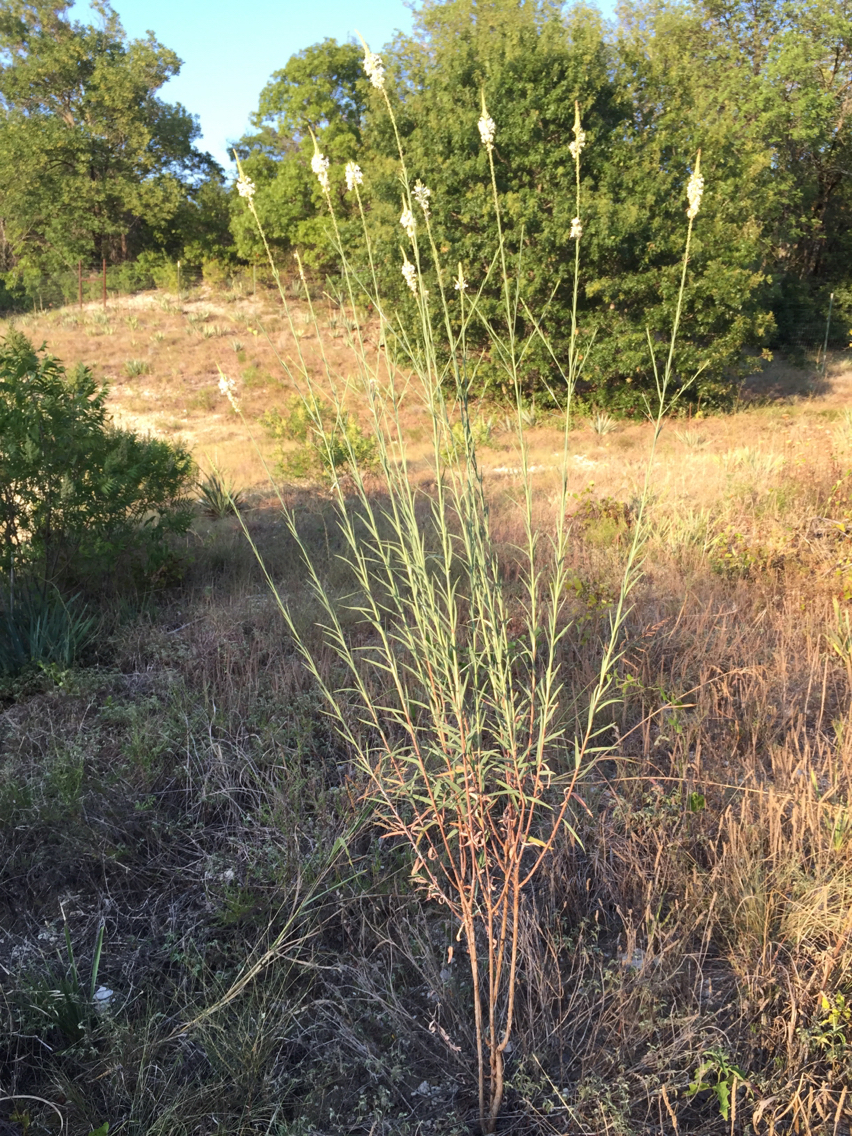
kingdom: Plantae
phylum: Tracheophyta
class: Magnoliopsida
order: Myrtales
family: Onagraceae
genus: Oenothera
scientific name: Oenothera glaucifolia
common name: False gaura
